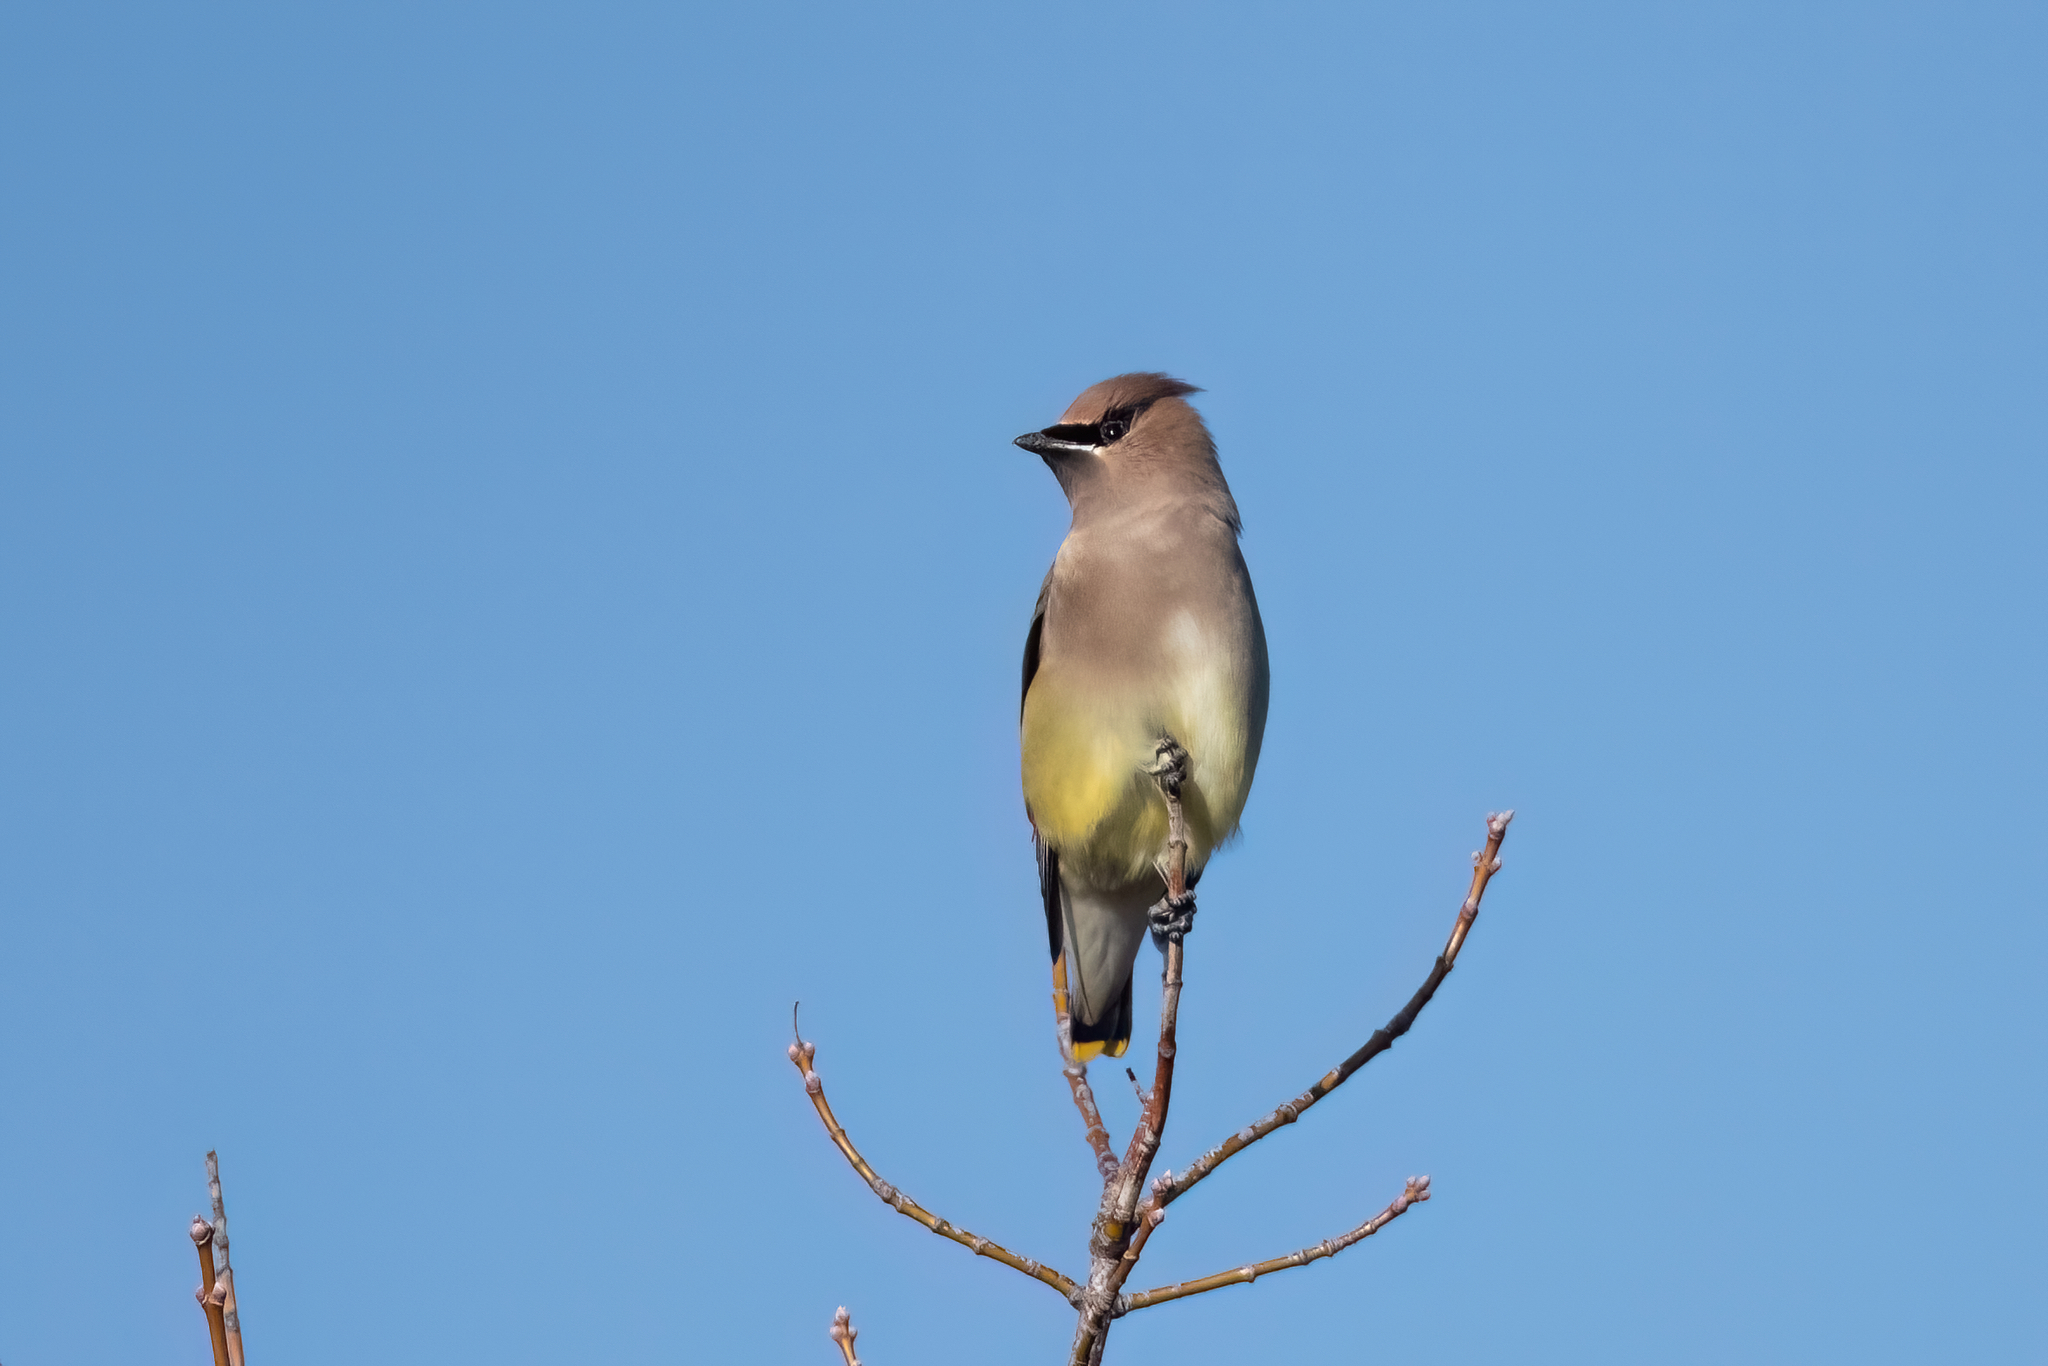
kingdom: Animalia
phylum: Chordata
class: Aves
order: Passeriformes
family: Bombycillidae
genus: Bombycilla
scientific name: Bombycilla cedrorum
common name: Cedar waxwing
